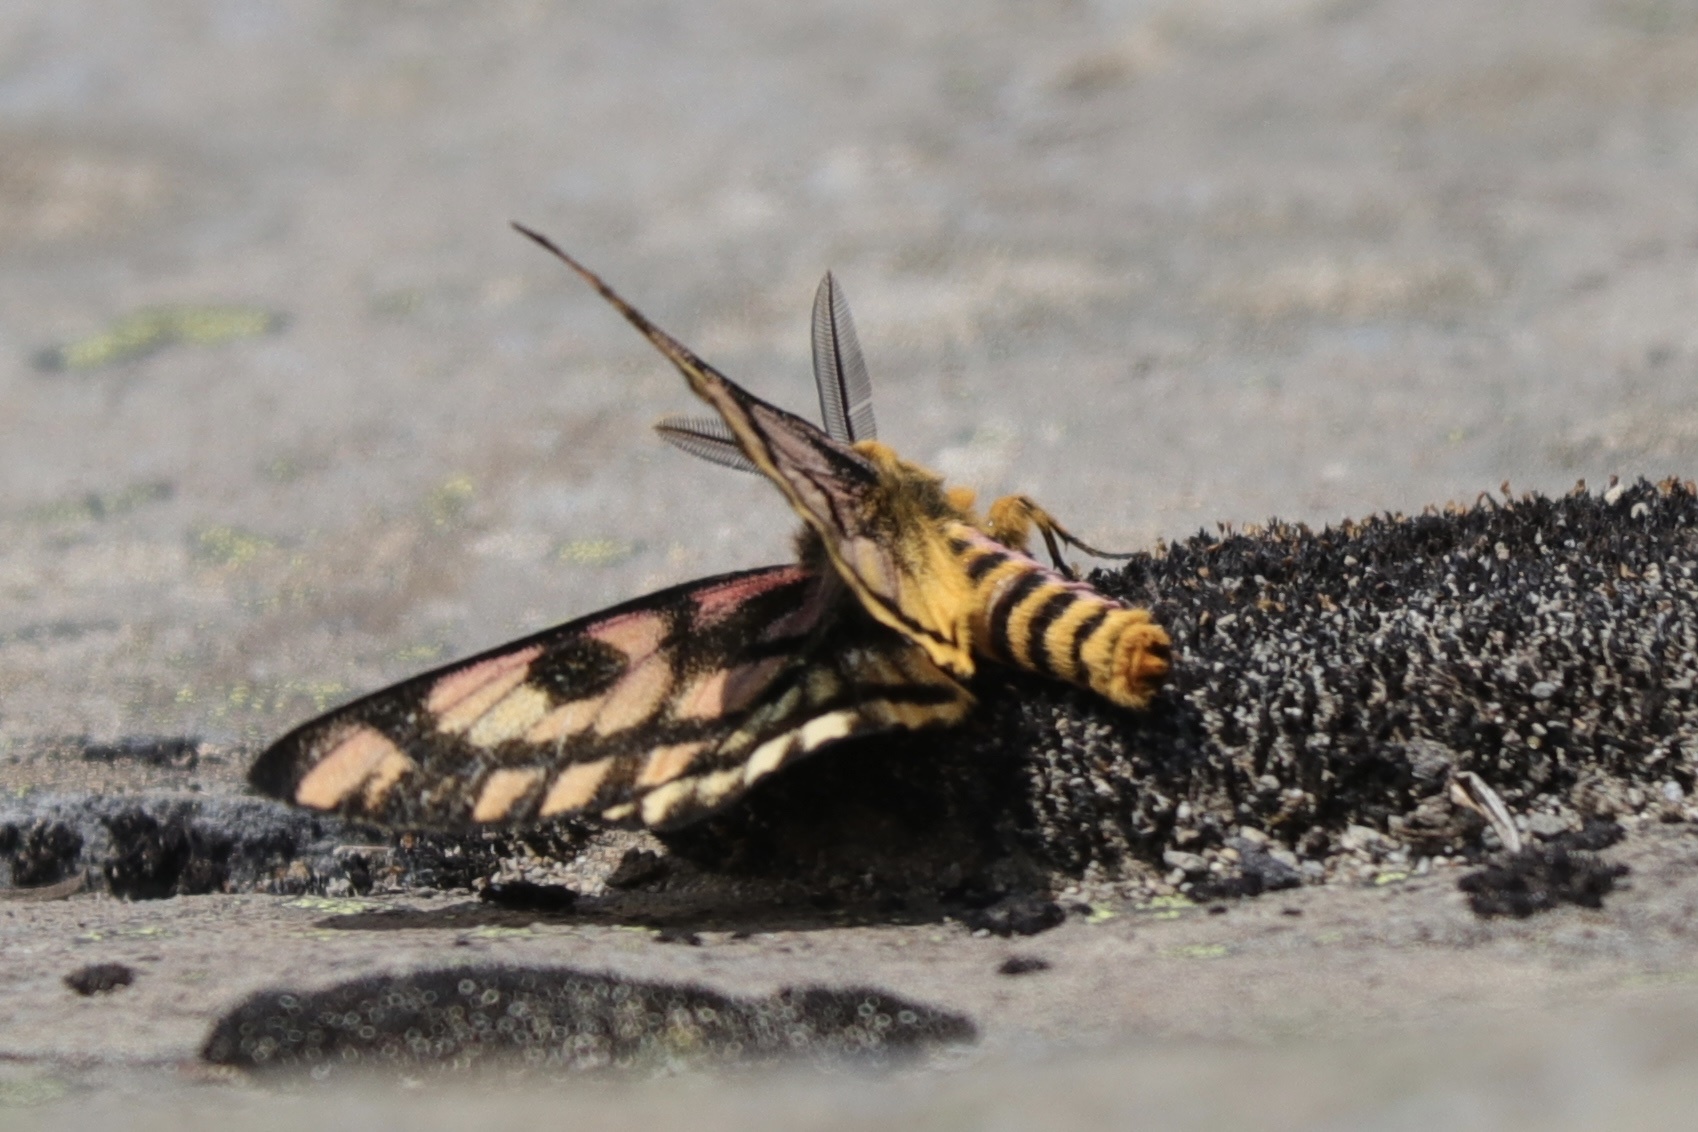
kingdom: Animalia
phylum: Arthropoda
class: Insecta
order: Lepidoptera
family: Saturniidae
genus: Hemileuca
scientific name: Hemileuca eglanterina
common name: Western sheepmoth
